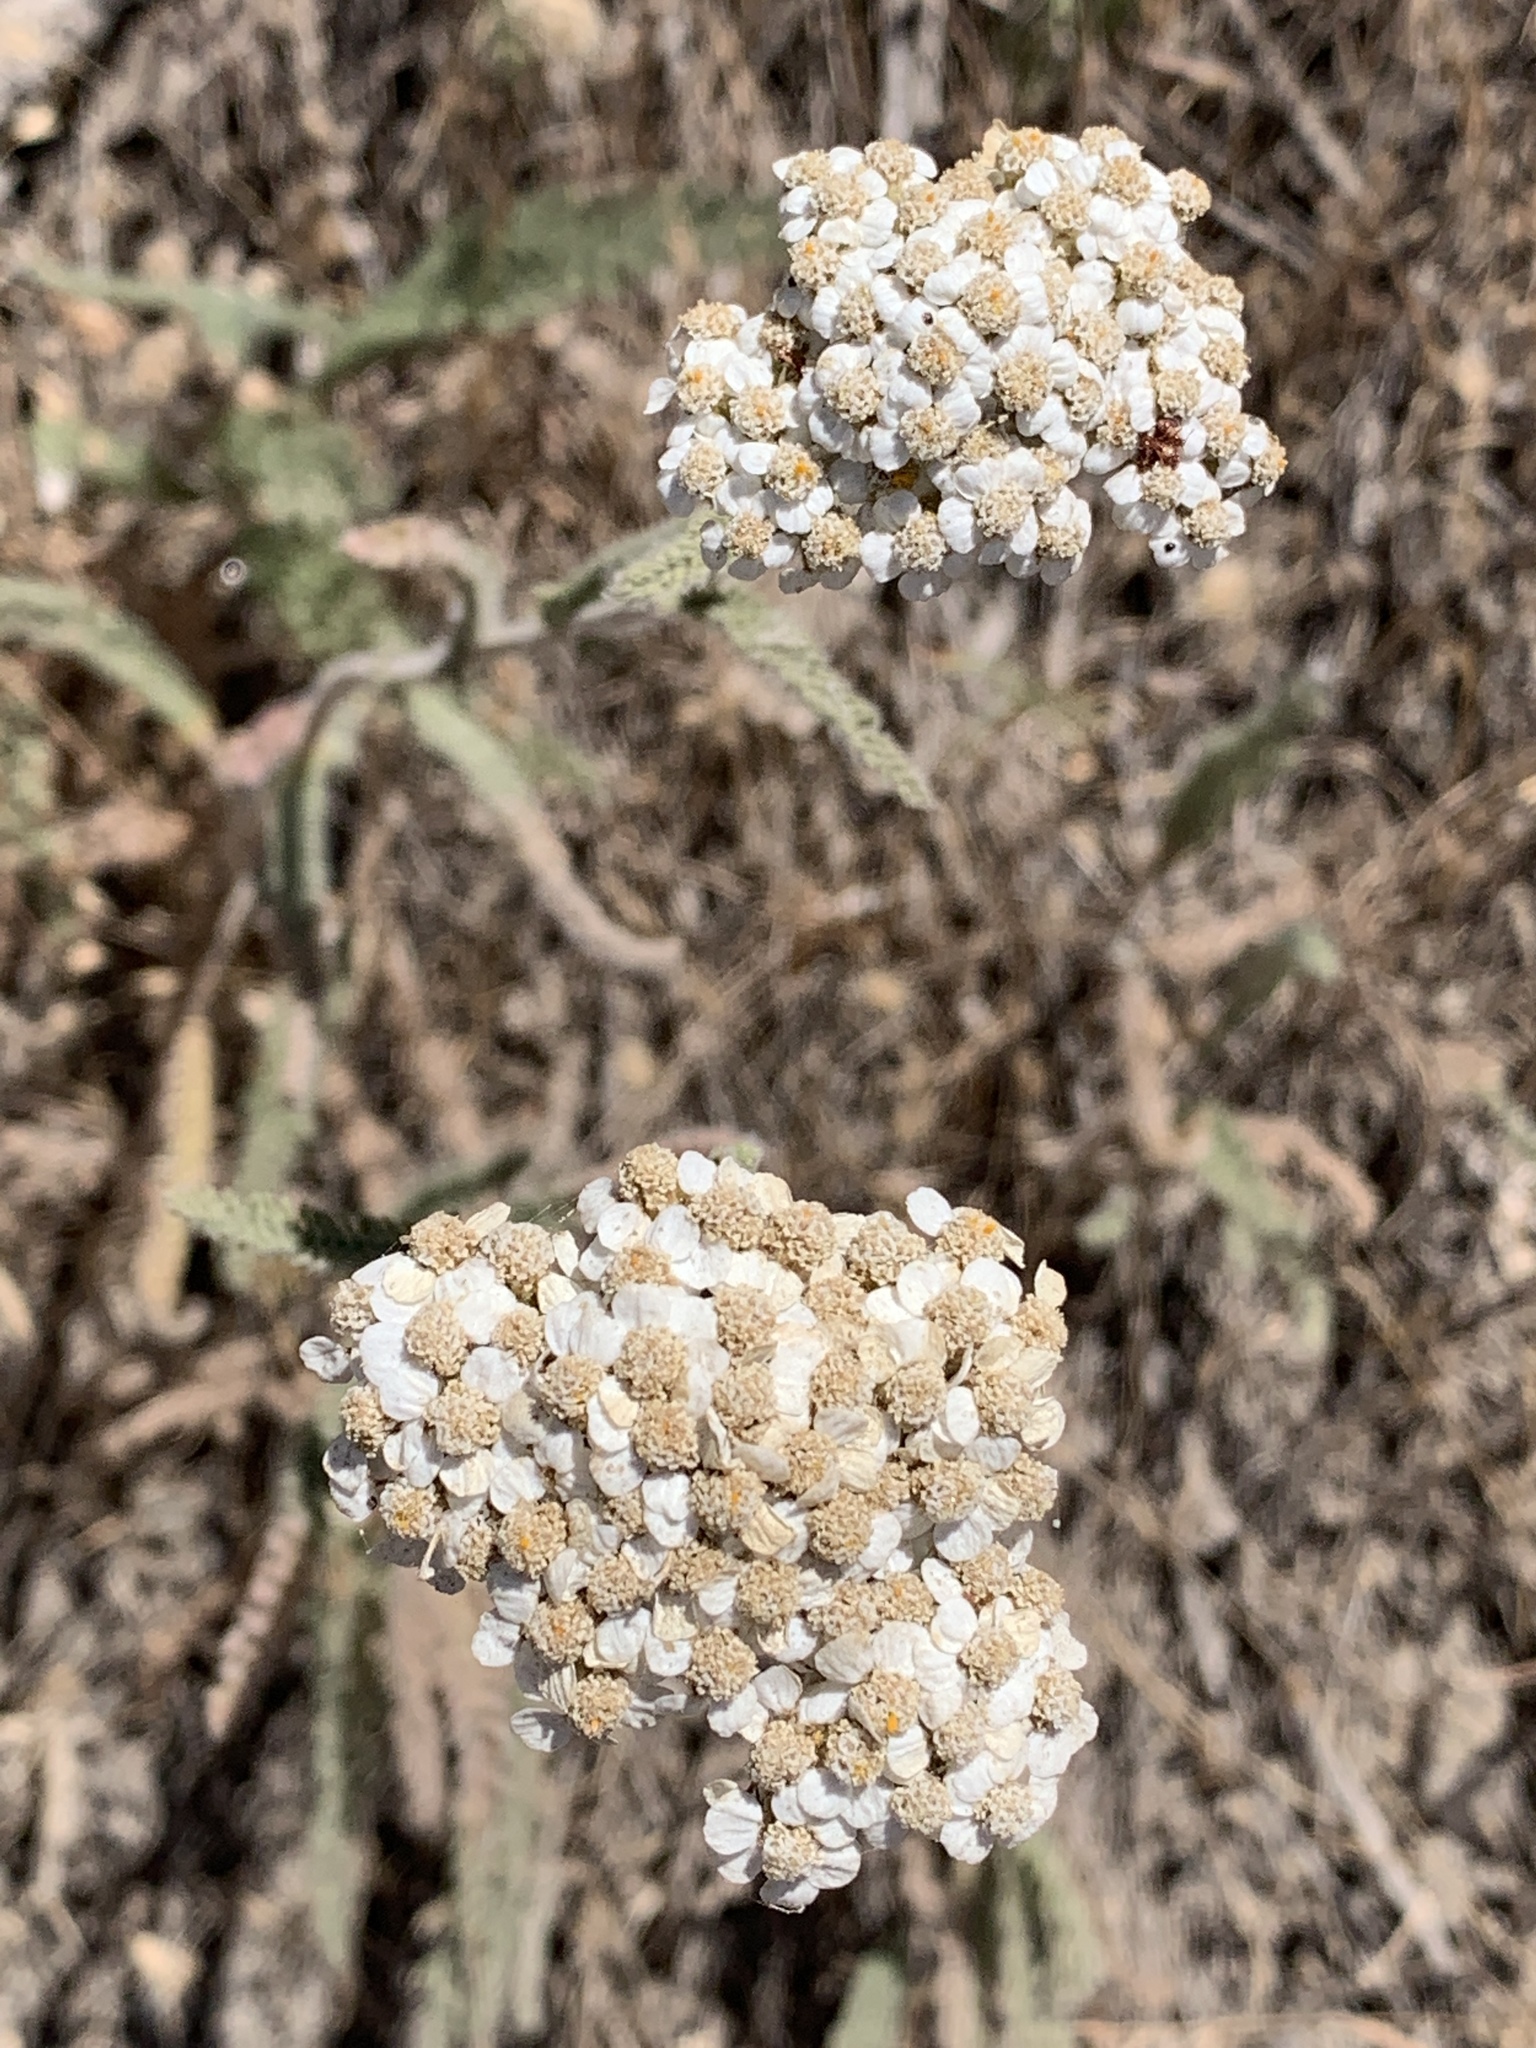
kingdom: Plantae
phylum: Tracheophyta
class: Magnoliopsida
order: Asterales
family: Asteraceae
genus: Achillea
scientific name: Achillea millefolium
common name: Yarrow
